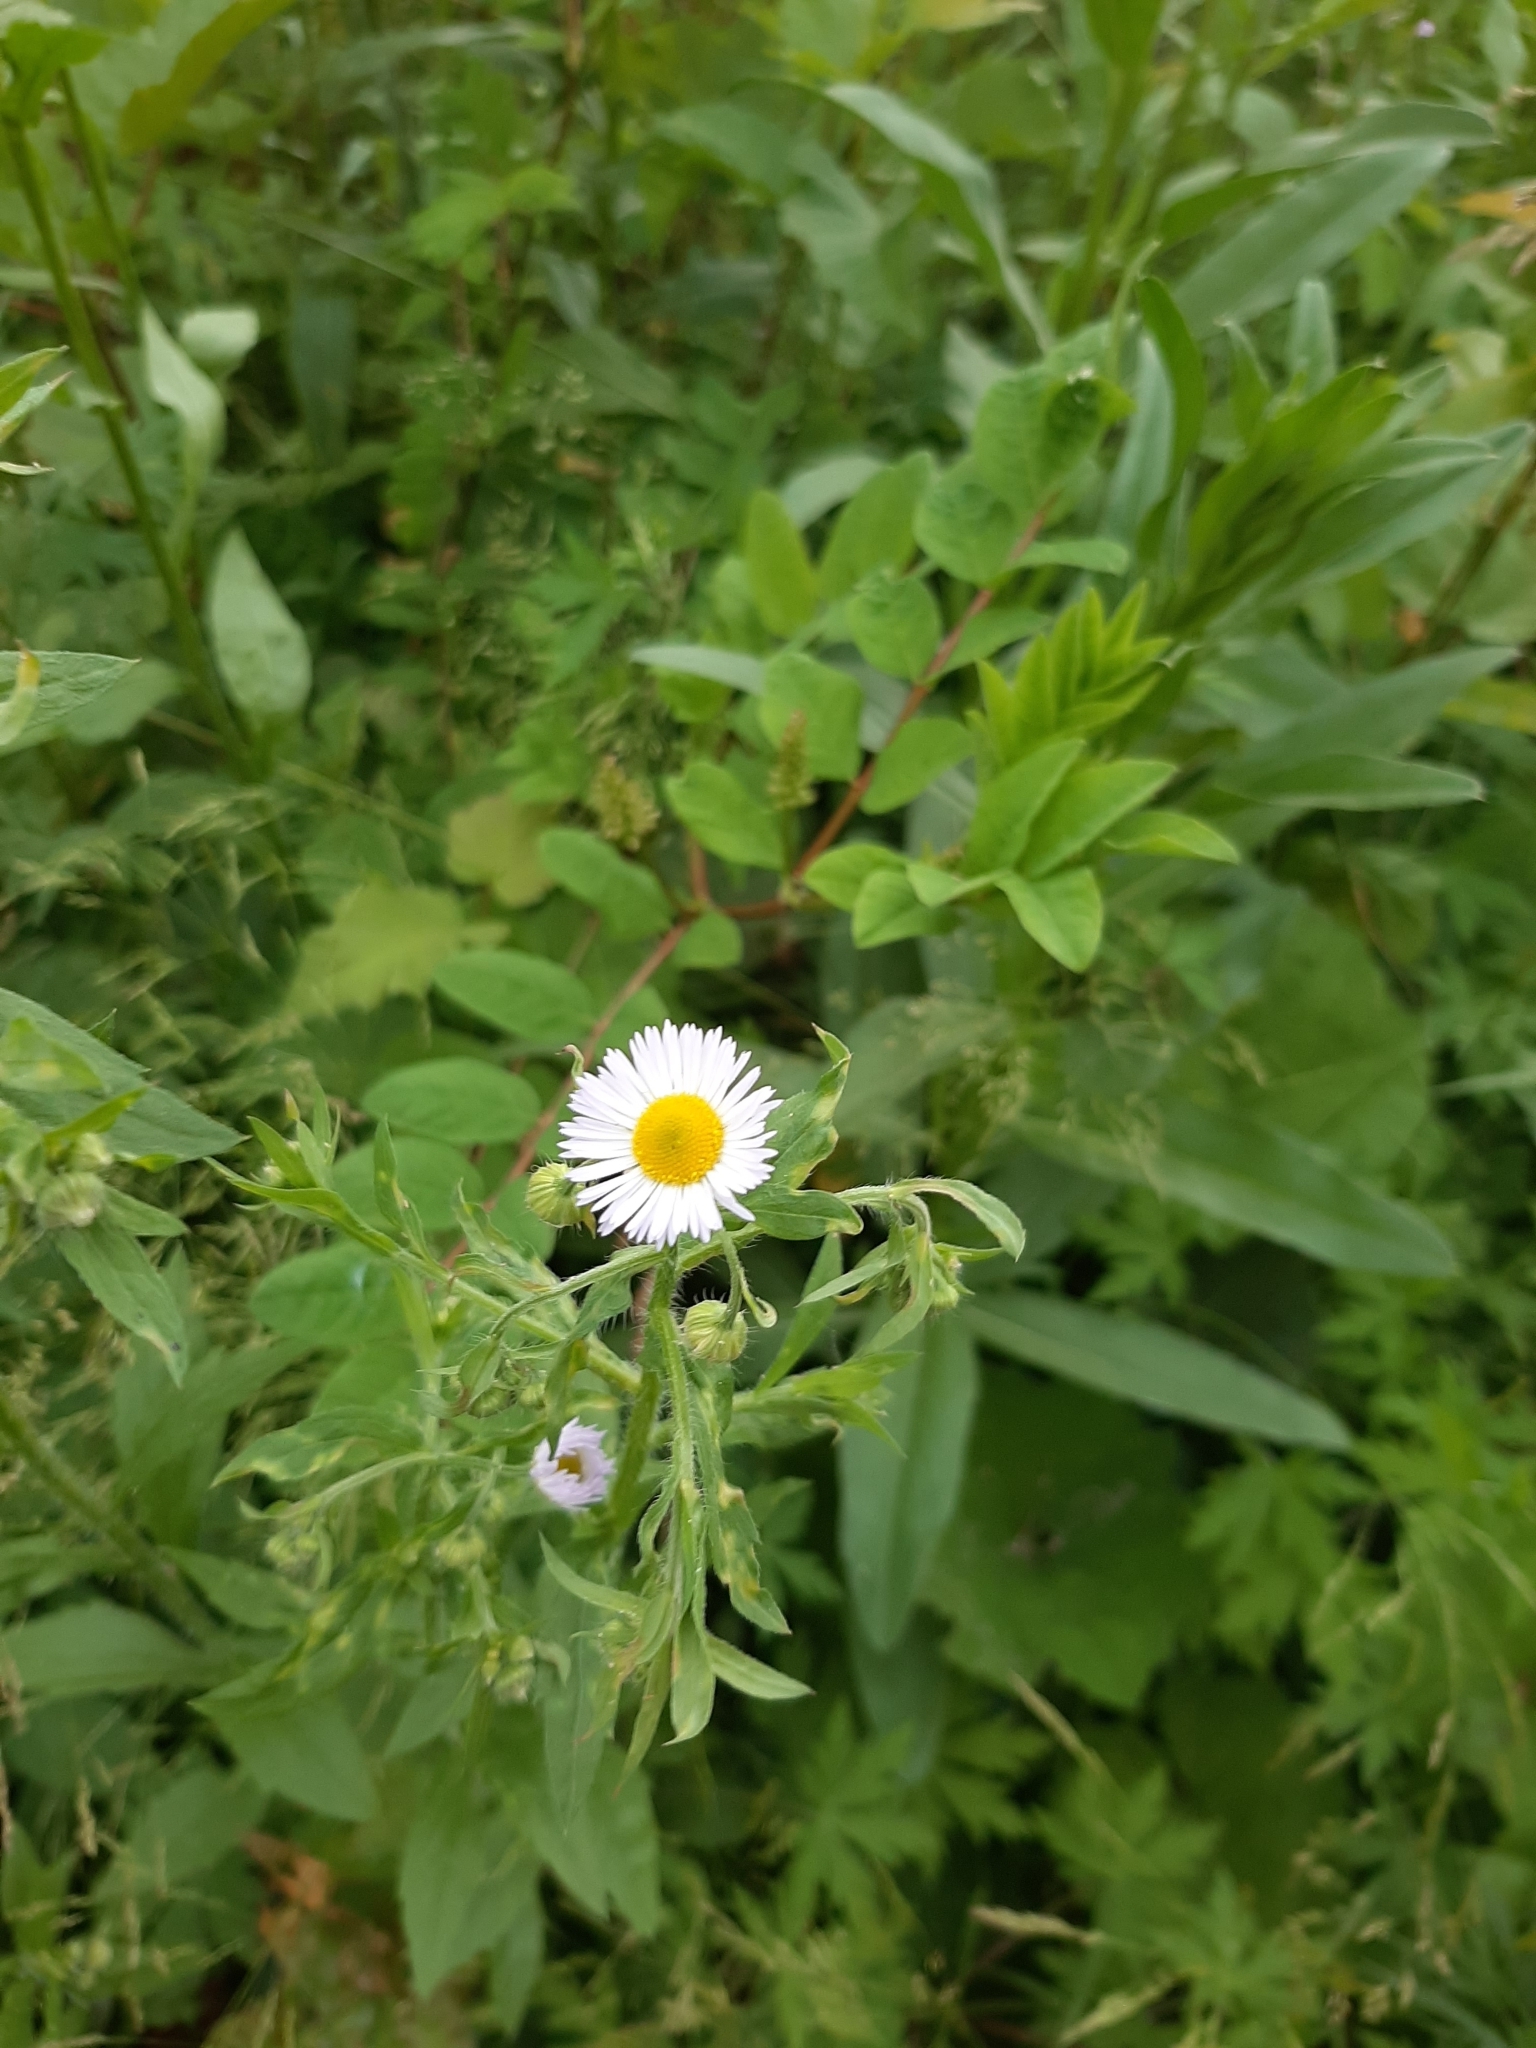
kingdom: Plantae
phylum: Tracheophyta
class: Magnoliopsida
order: Asterales
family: Asteraceae
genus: Erigeron
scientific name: Erigeron annuus
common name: Tall fleabane
